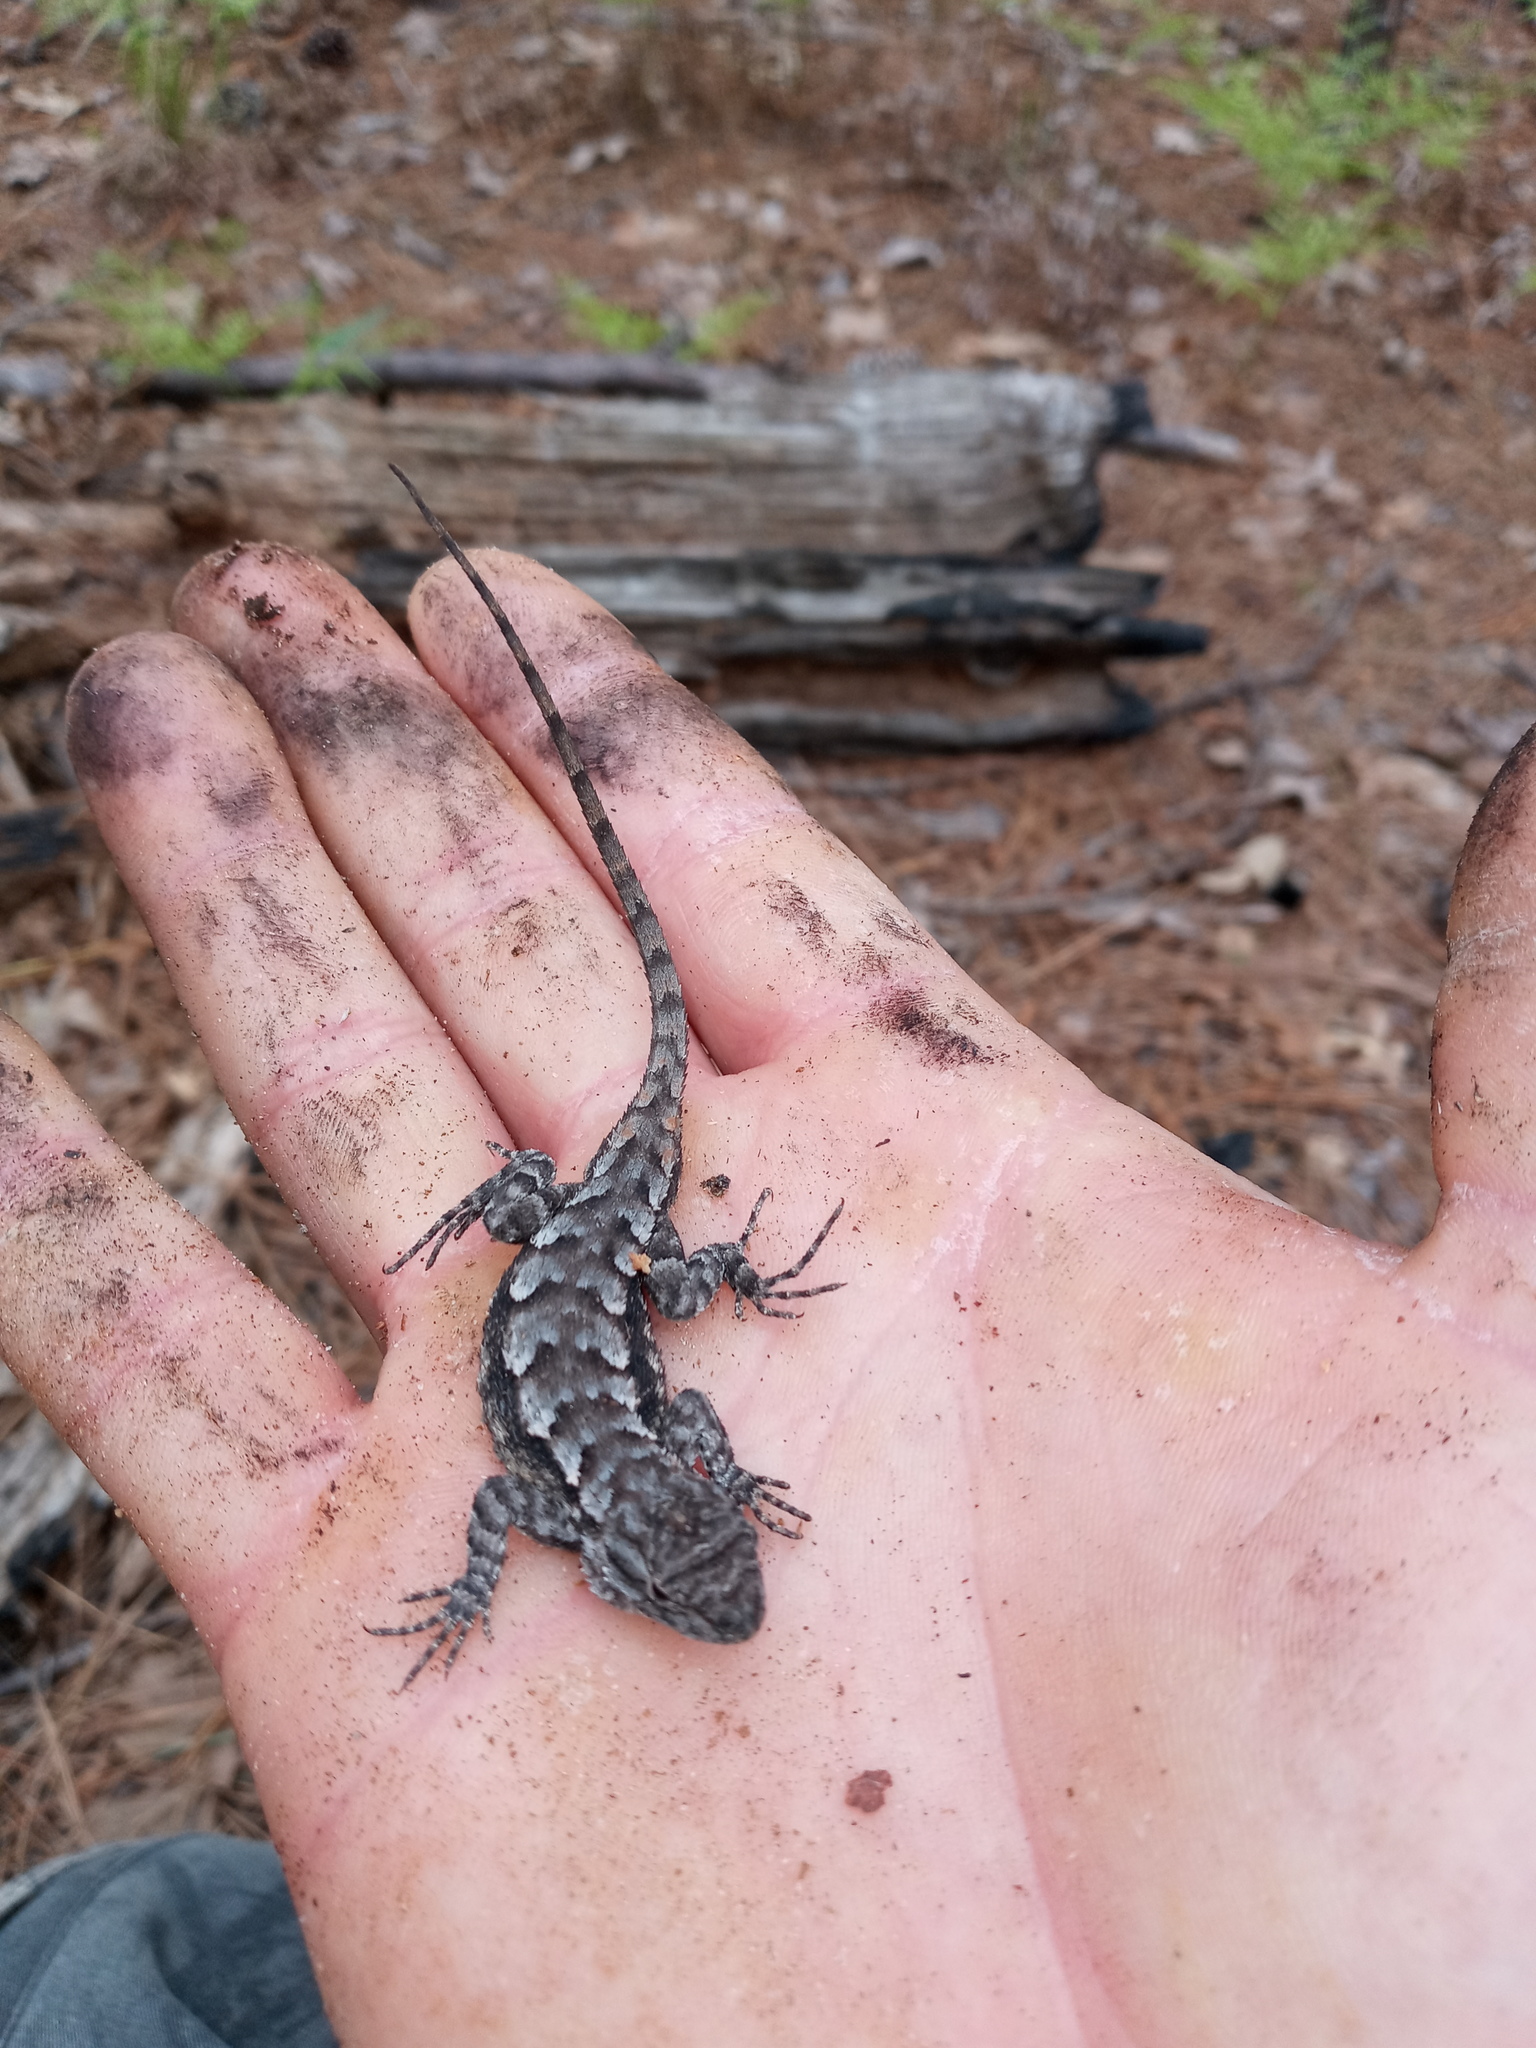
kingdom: Animalia
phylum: Chordata
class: Squamata
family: Phrynosomatidae
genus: Sceloporus
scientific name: Sceloporus consobrinus
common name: Southern prairie lizard
